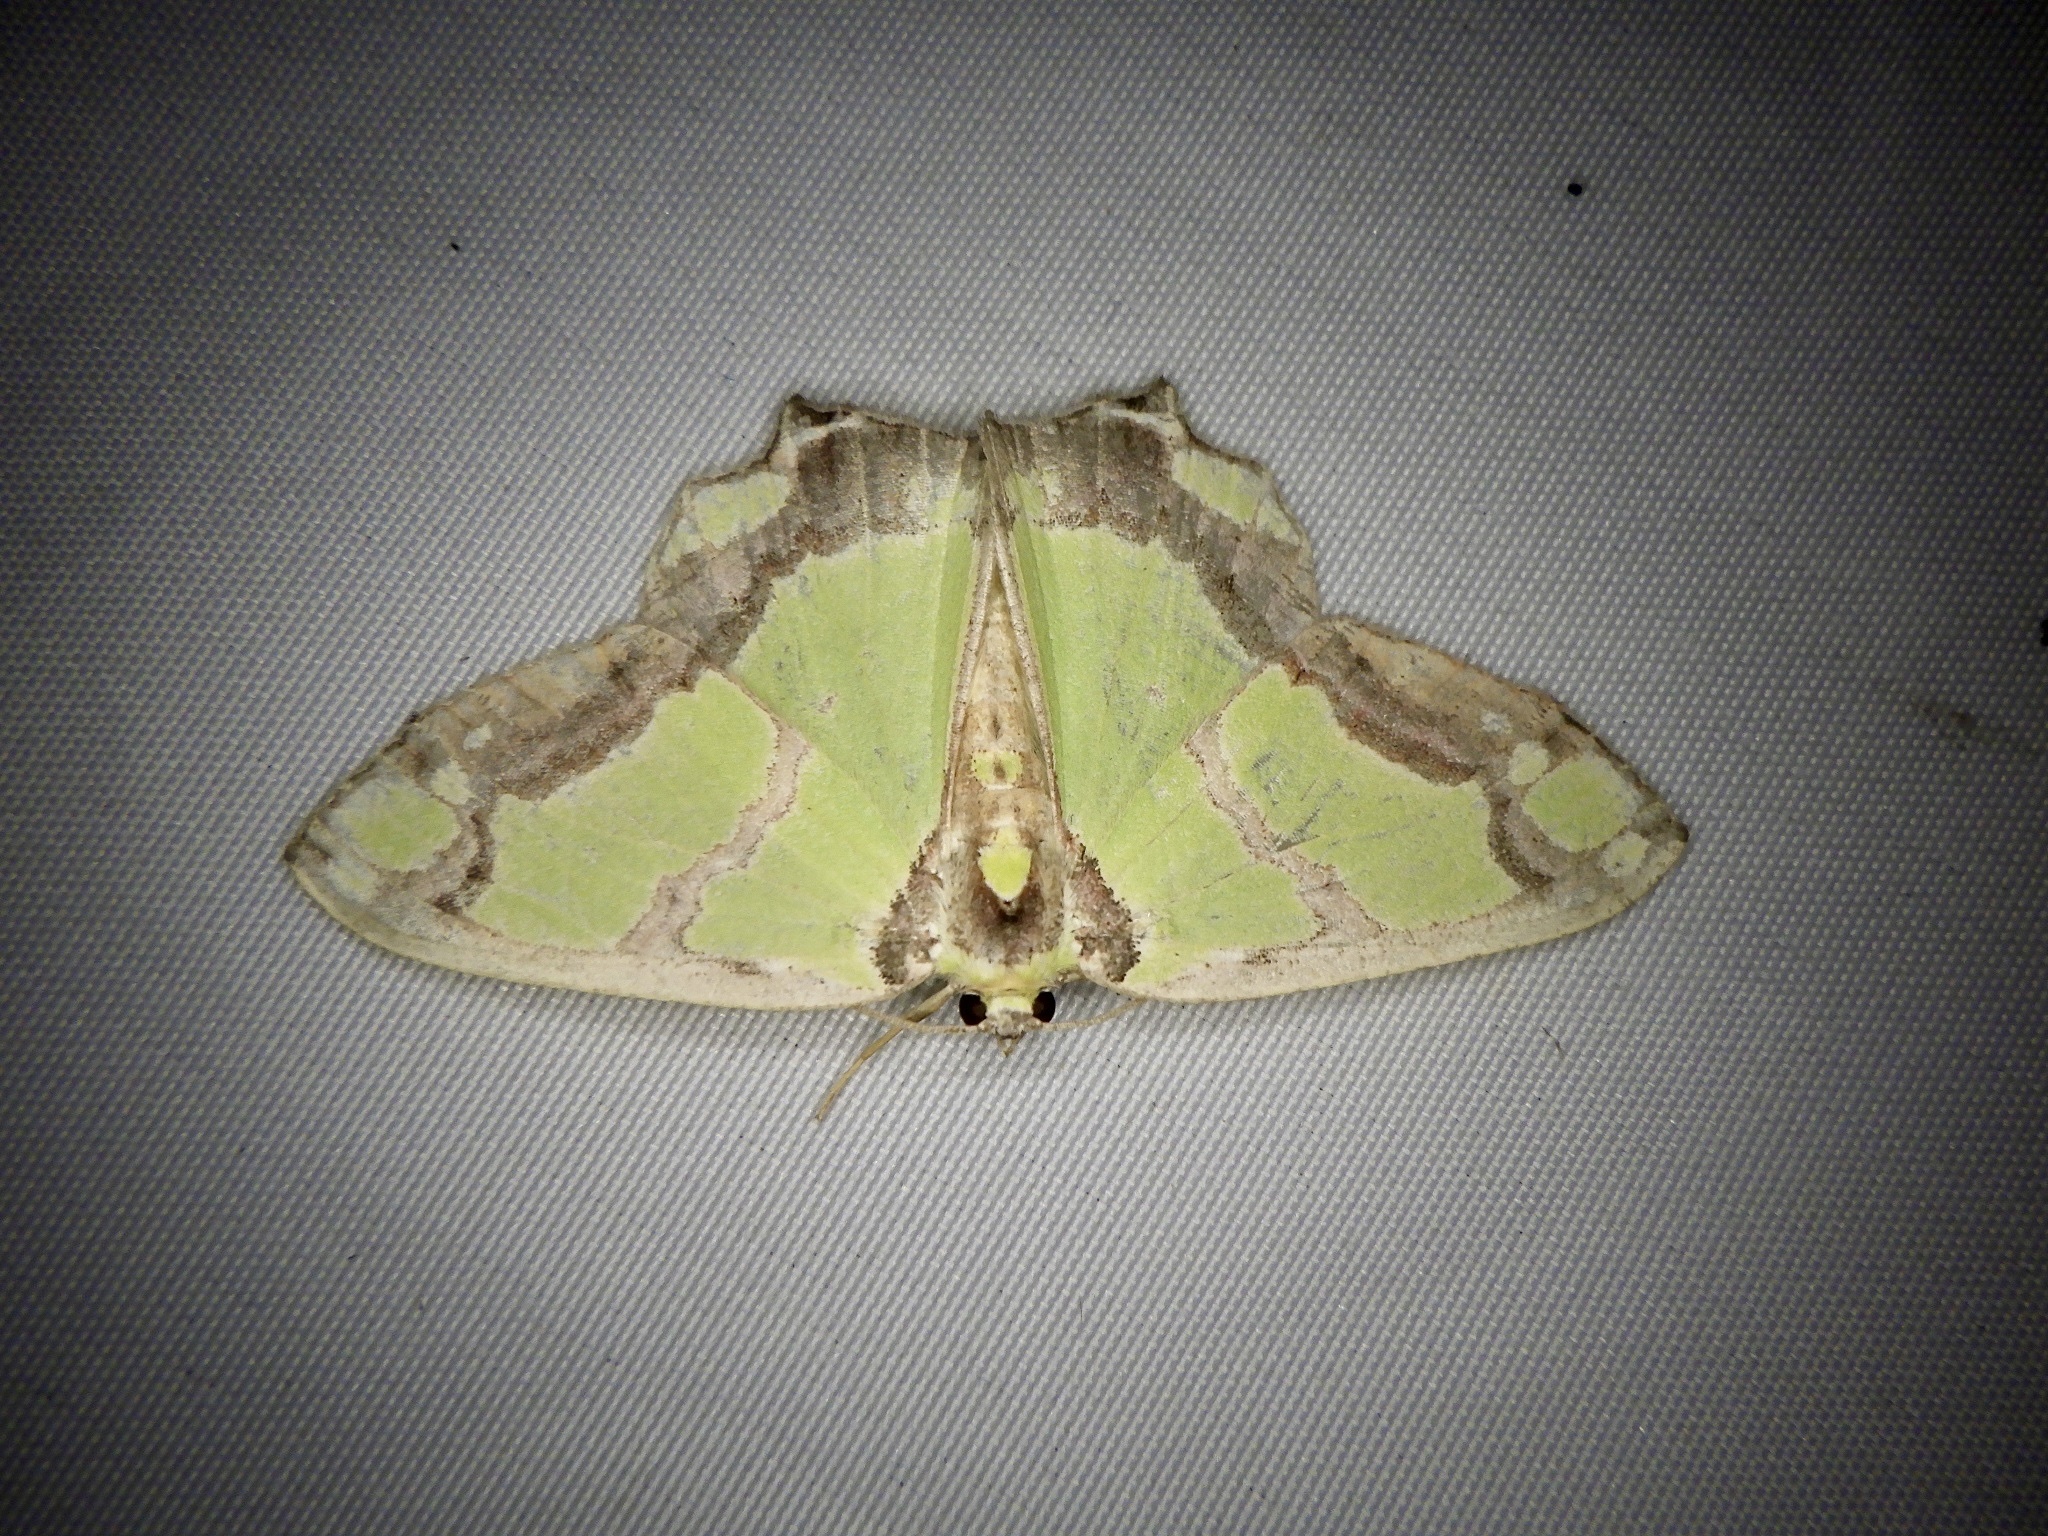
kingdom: Animalia
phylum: Arthropoda
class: Insecta
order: Lepidoptera
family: Geometridae
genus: Agathia
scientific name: Agathia visenda
